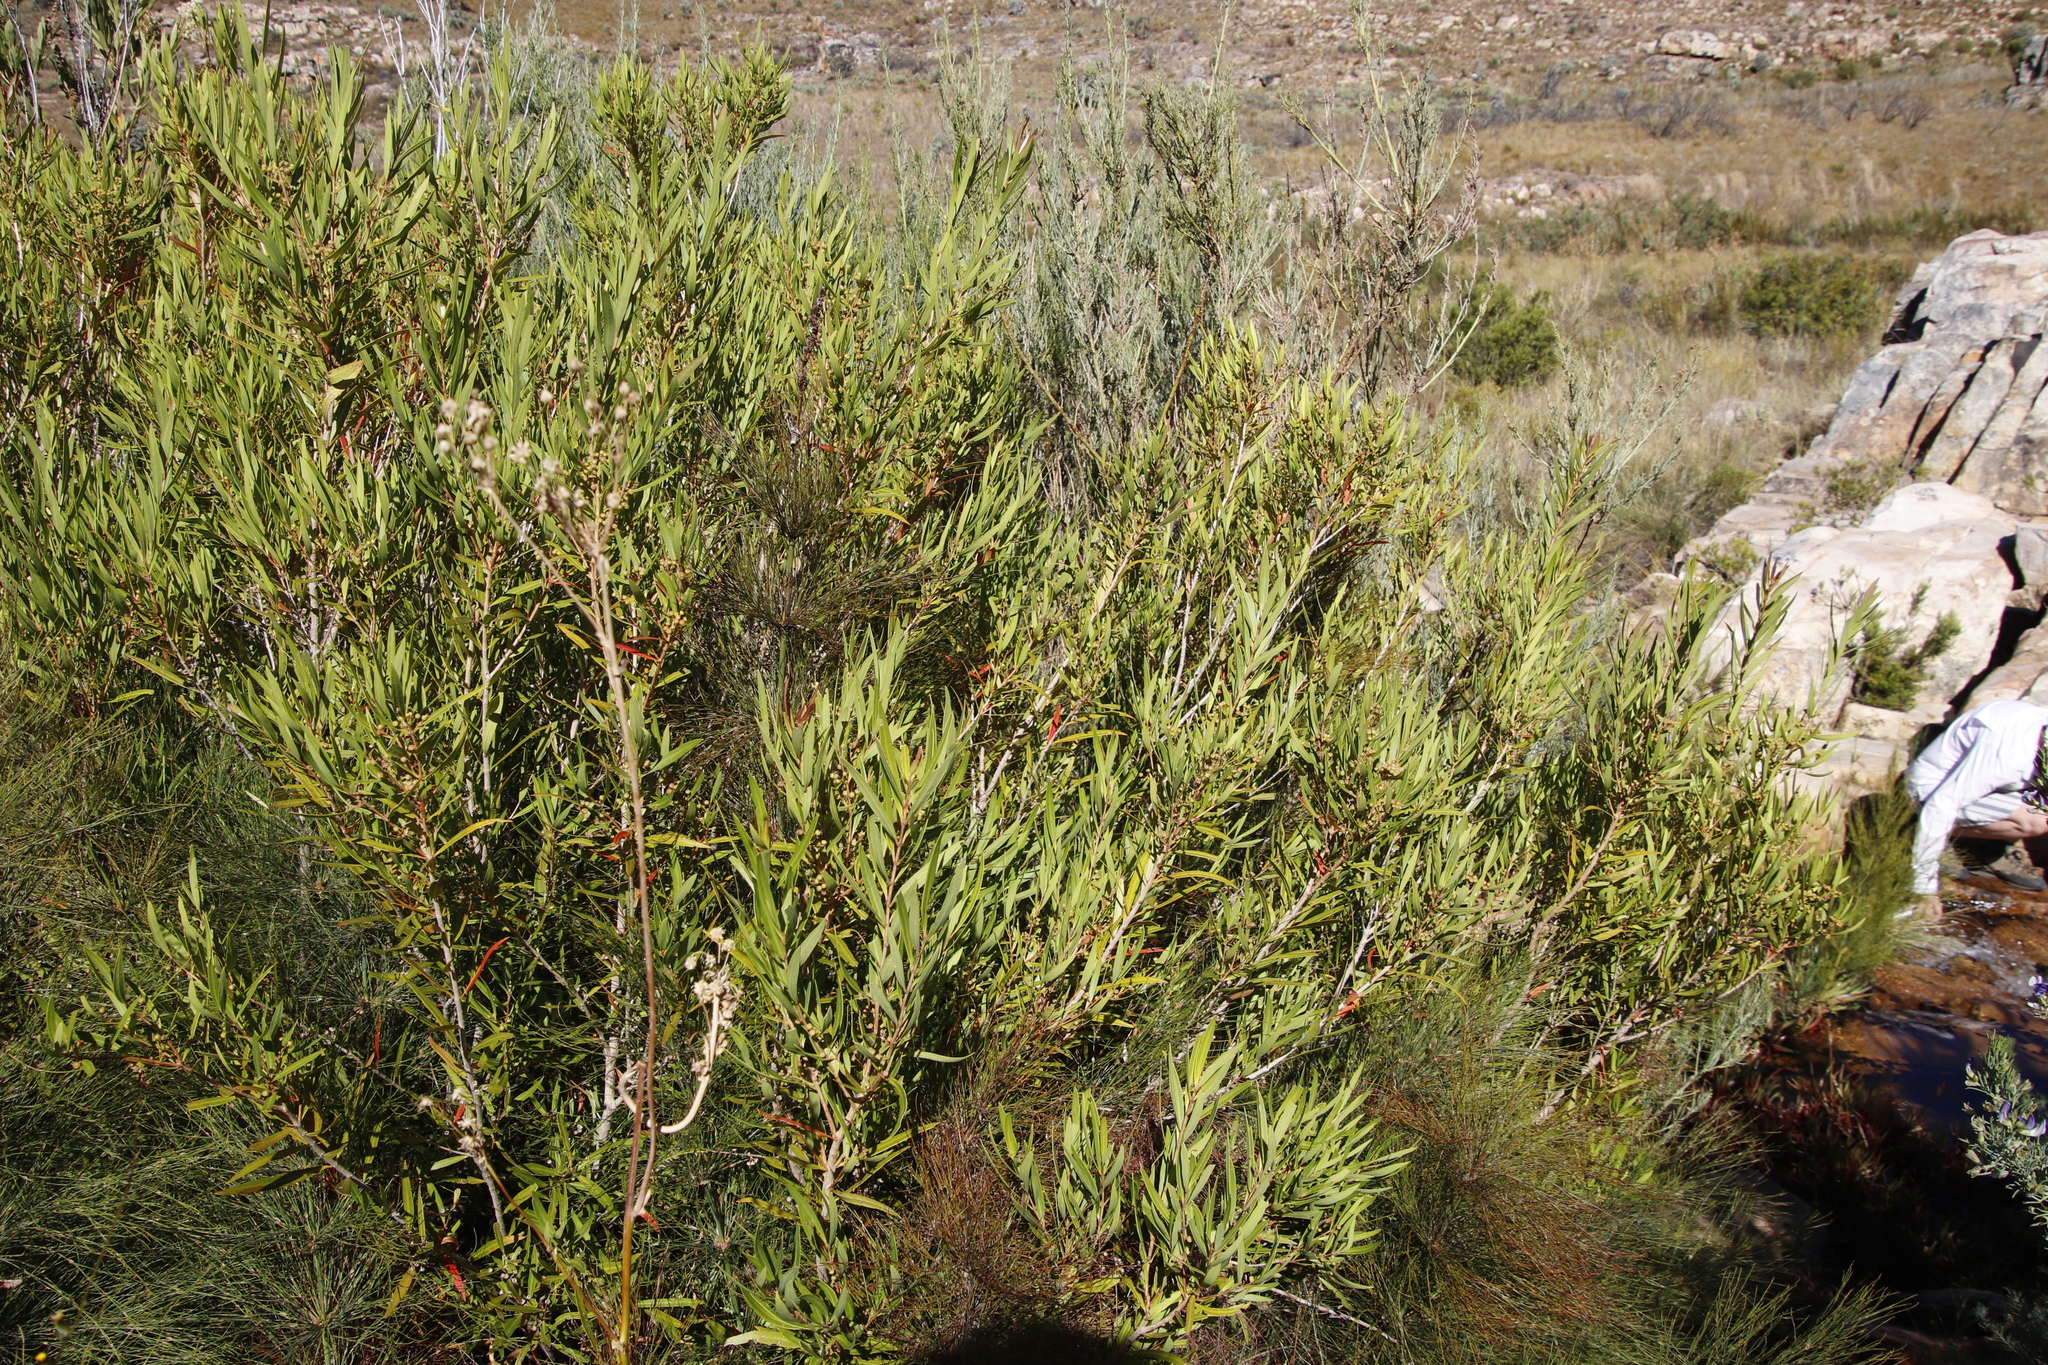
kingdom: Plantae
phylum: Tracheophyta
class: Magnoliopsida
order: Myrtales
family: Myrtaceae
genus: Callistemon
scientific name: Callistemon lanceolatus
